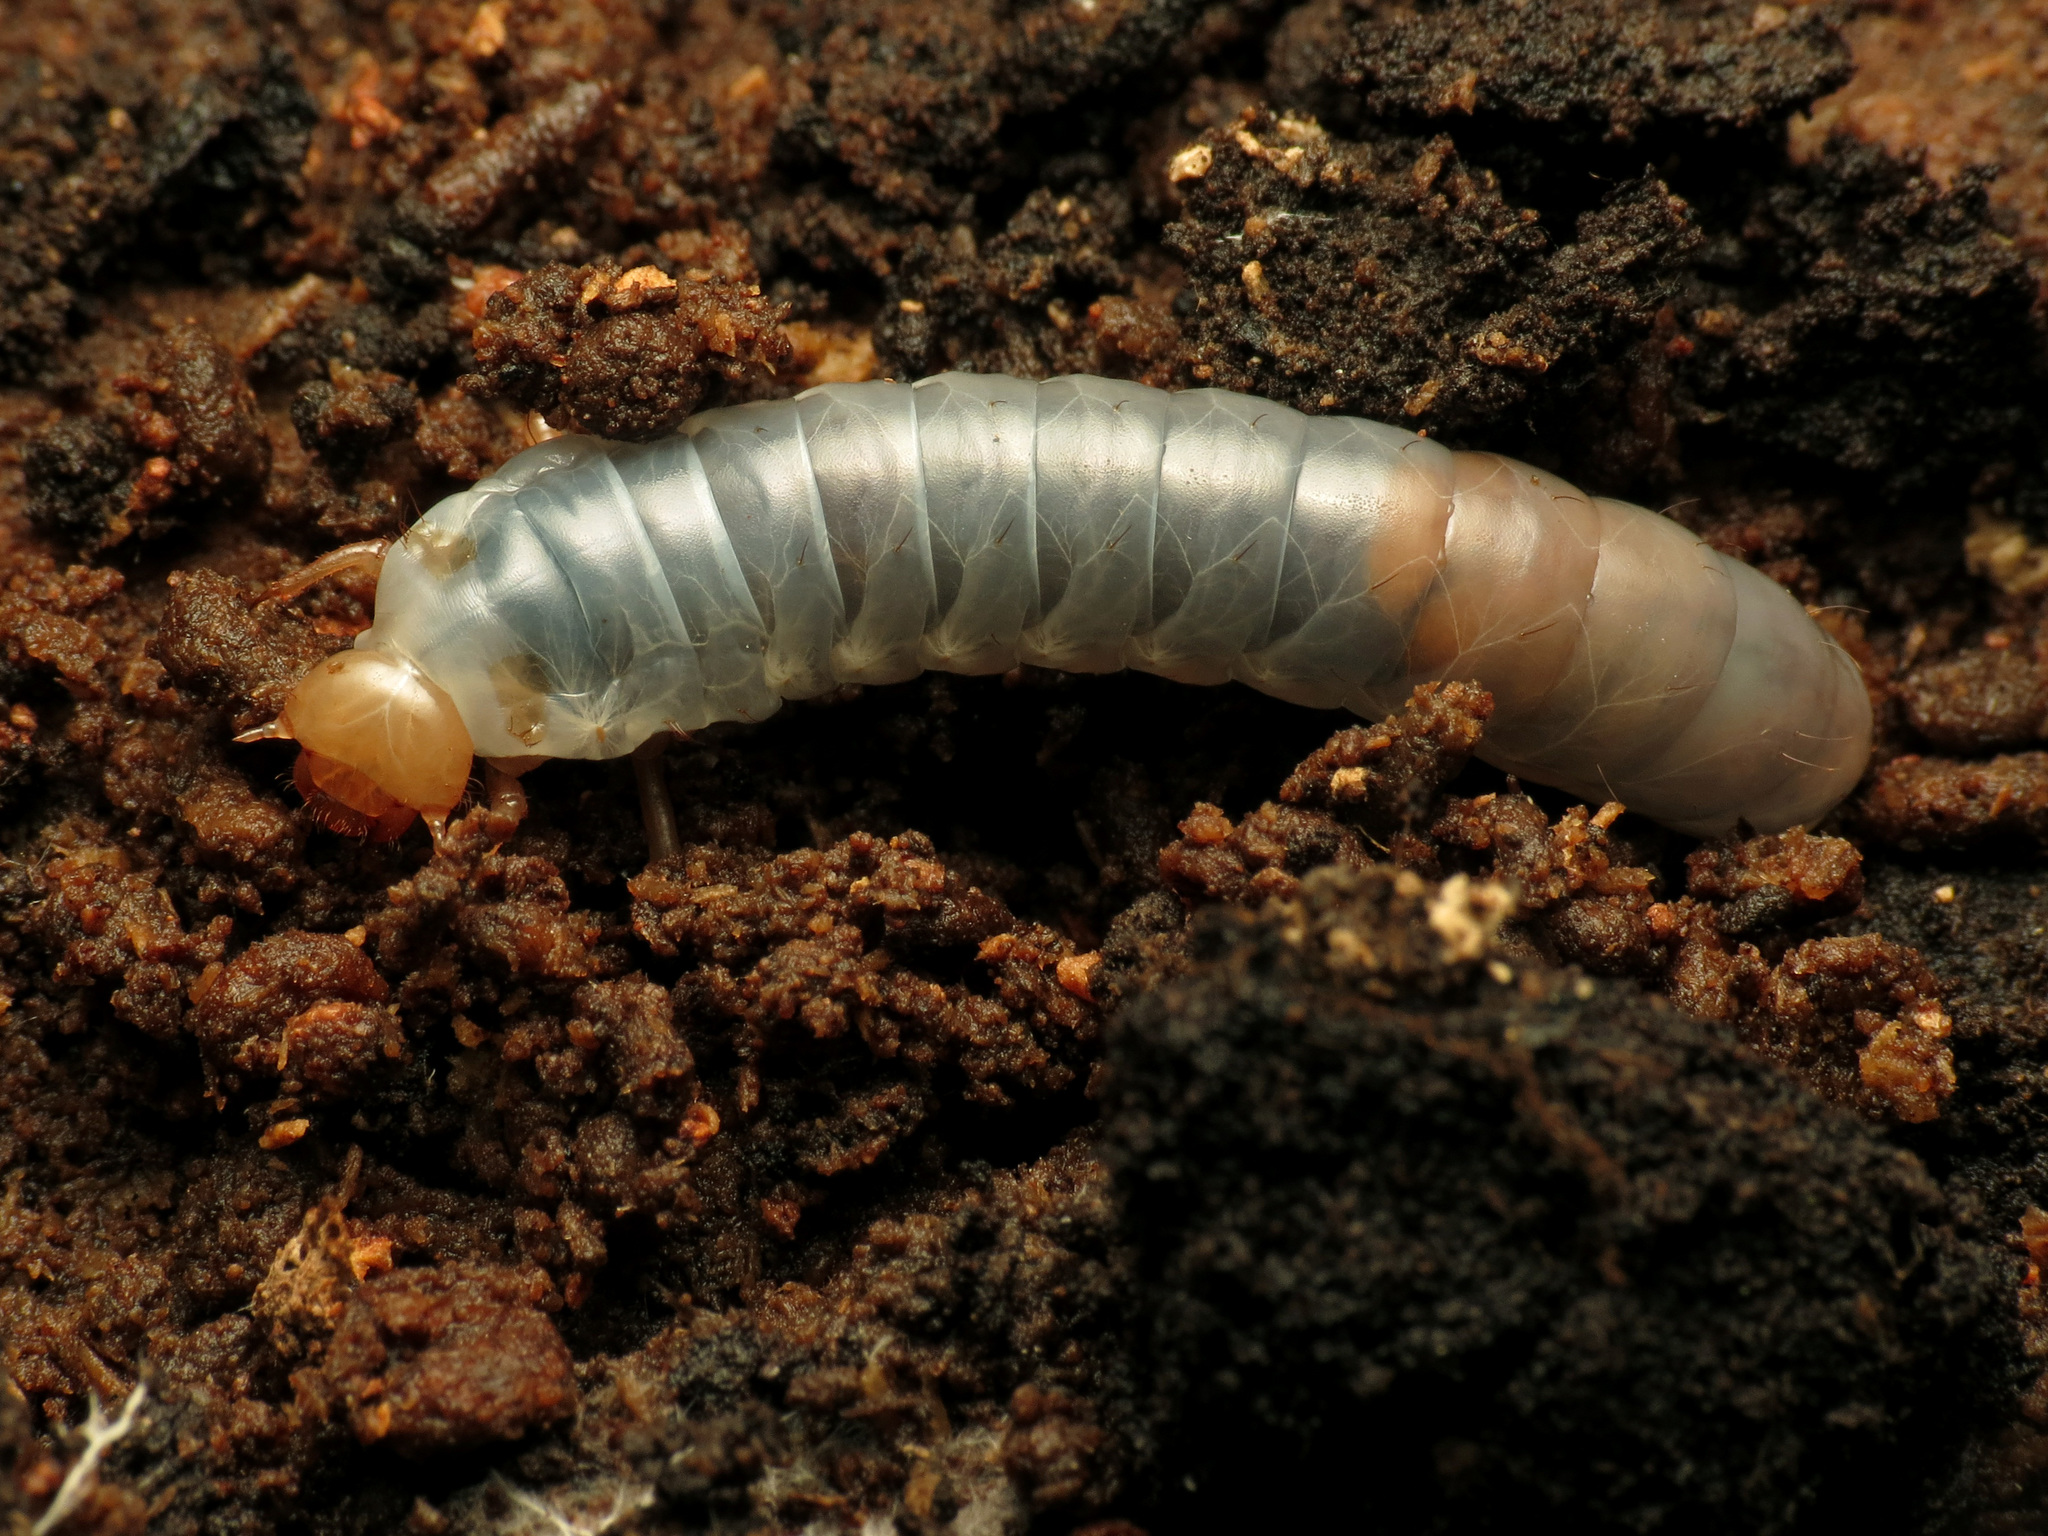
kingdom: Animalia
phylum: Arthropoda
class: Insecta
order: Coleoptera
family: Passalidae
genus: Odontotaenius
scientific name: Odontotaenius disjunctus
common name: Patent leather beetle
